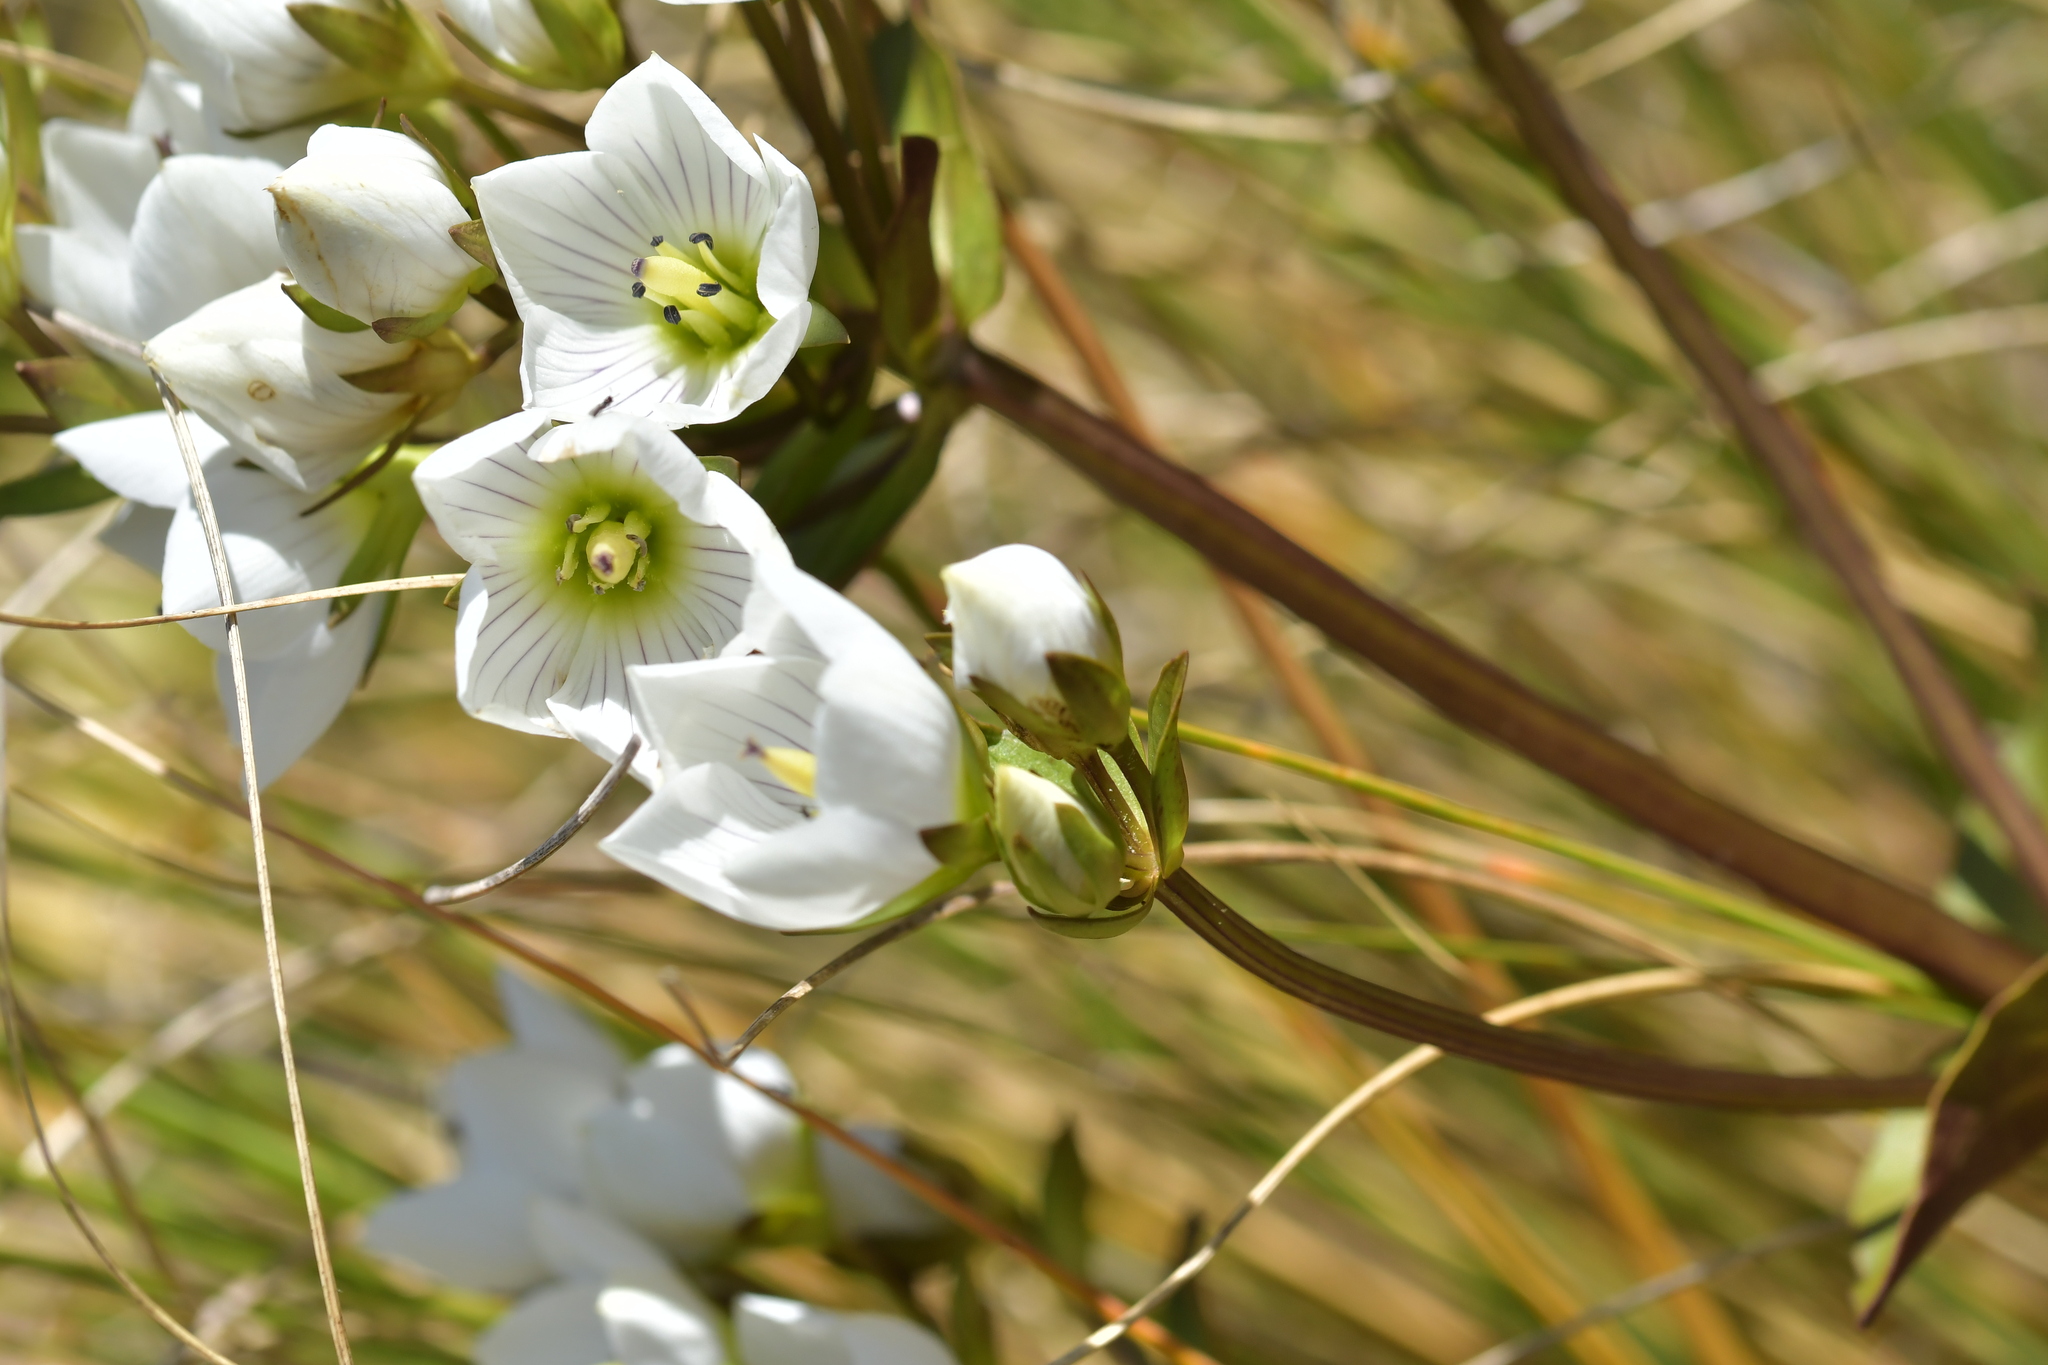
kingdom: Plantae
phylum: Tracheophyta
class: Magnoliopsida
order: Gentianales
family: Gentianaceae
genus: Gentianella
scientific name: Gentianella montana
